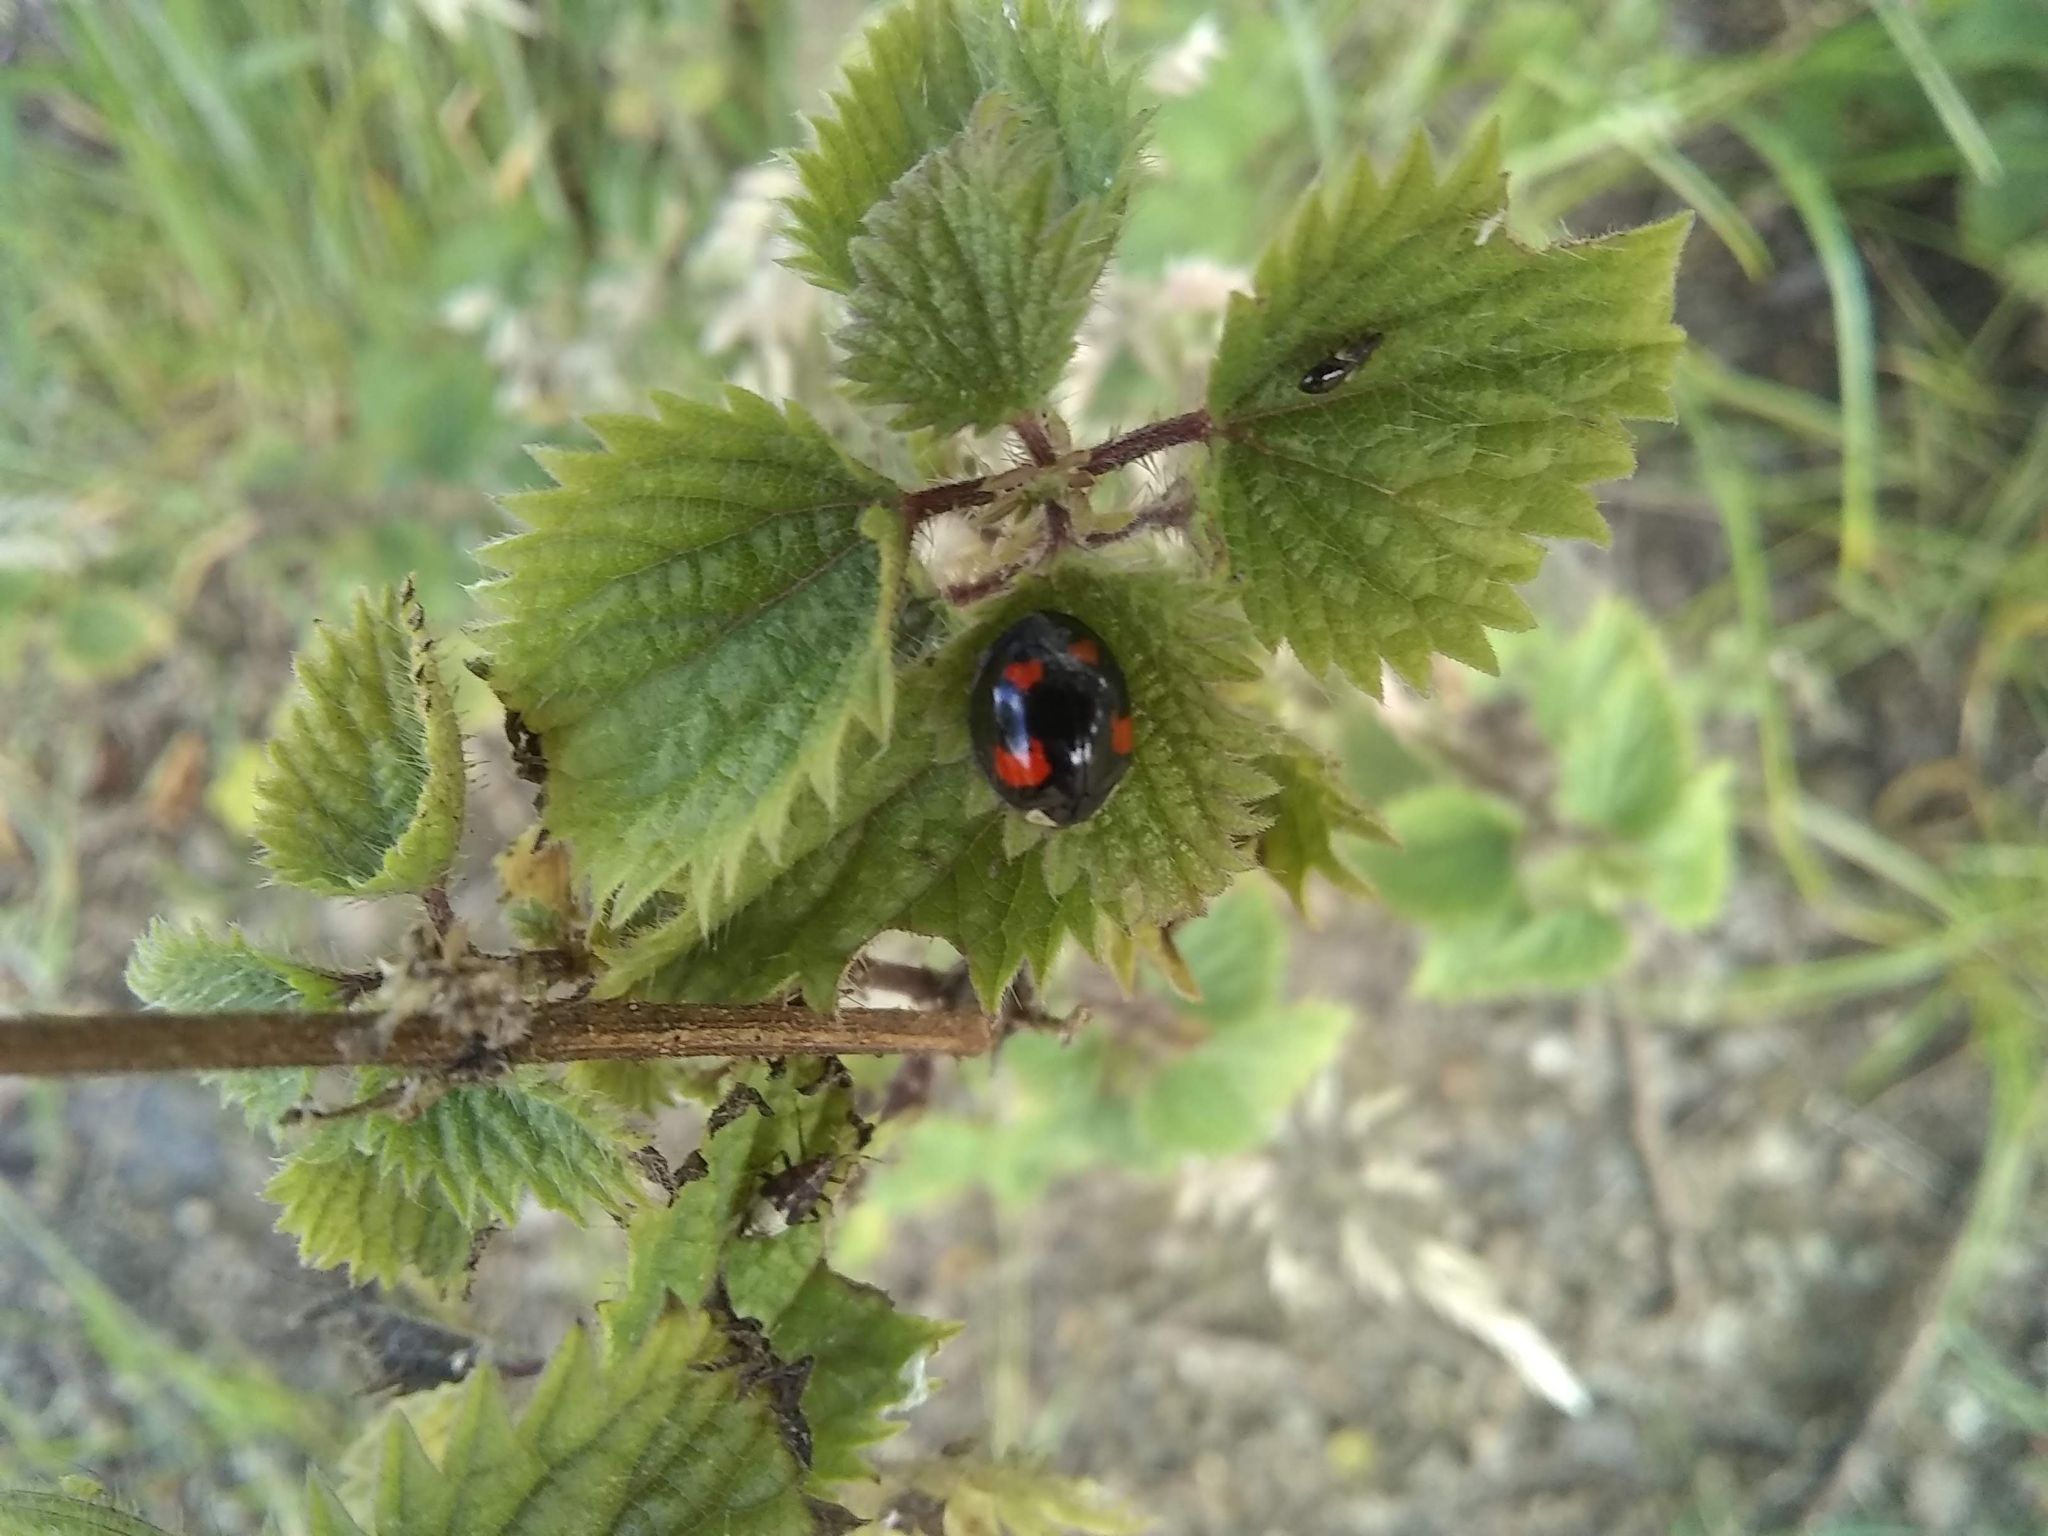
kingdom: Animalia
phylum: Arthropoda
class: Insecta
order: Coleoptera
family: Coccinellidae
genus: Harmonia
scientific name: Harmonia axyridis
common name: Harlequin ladybird
